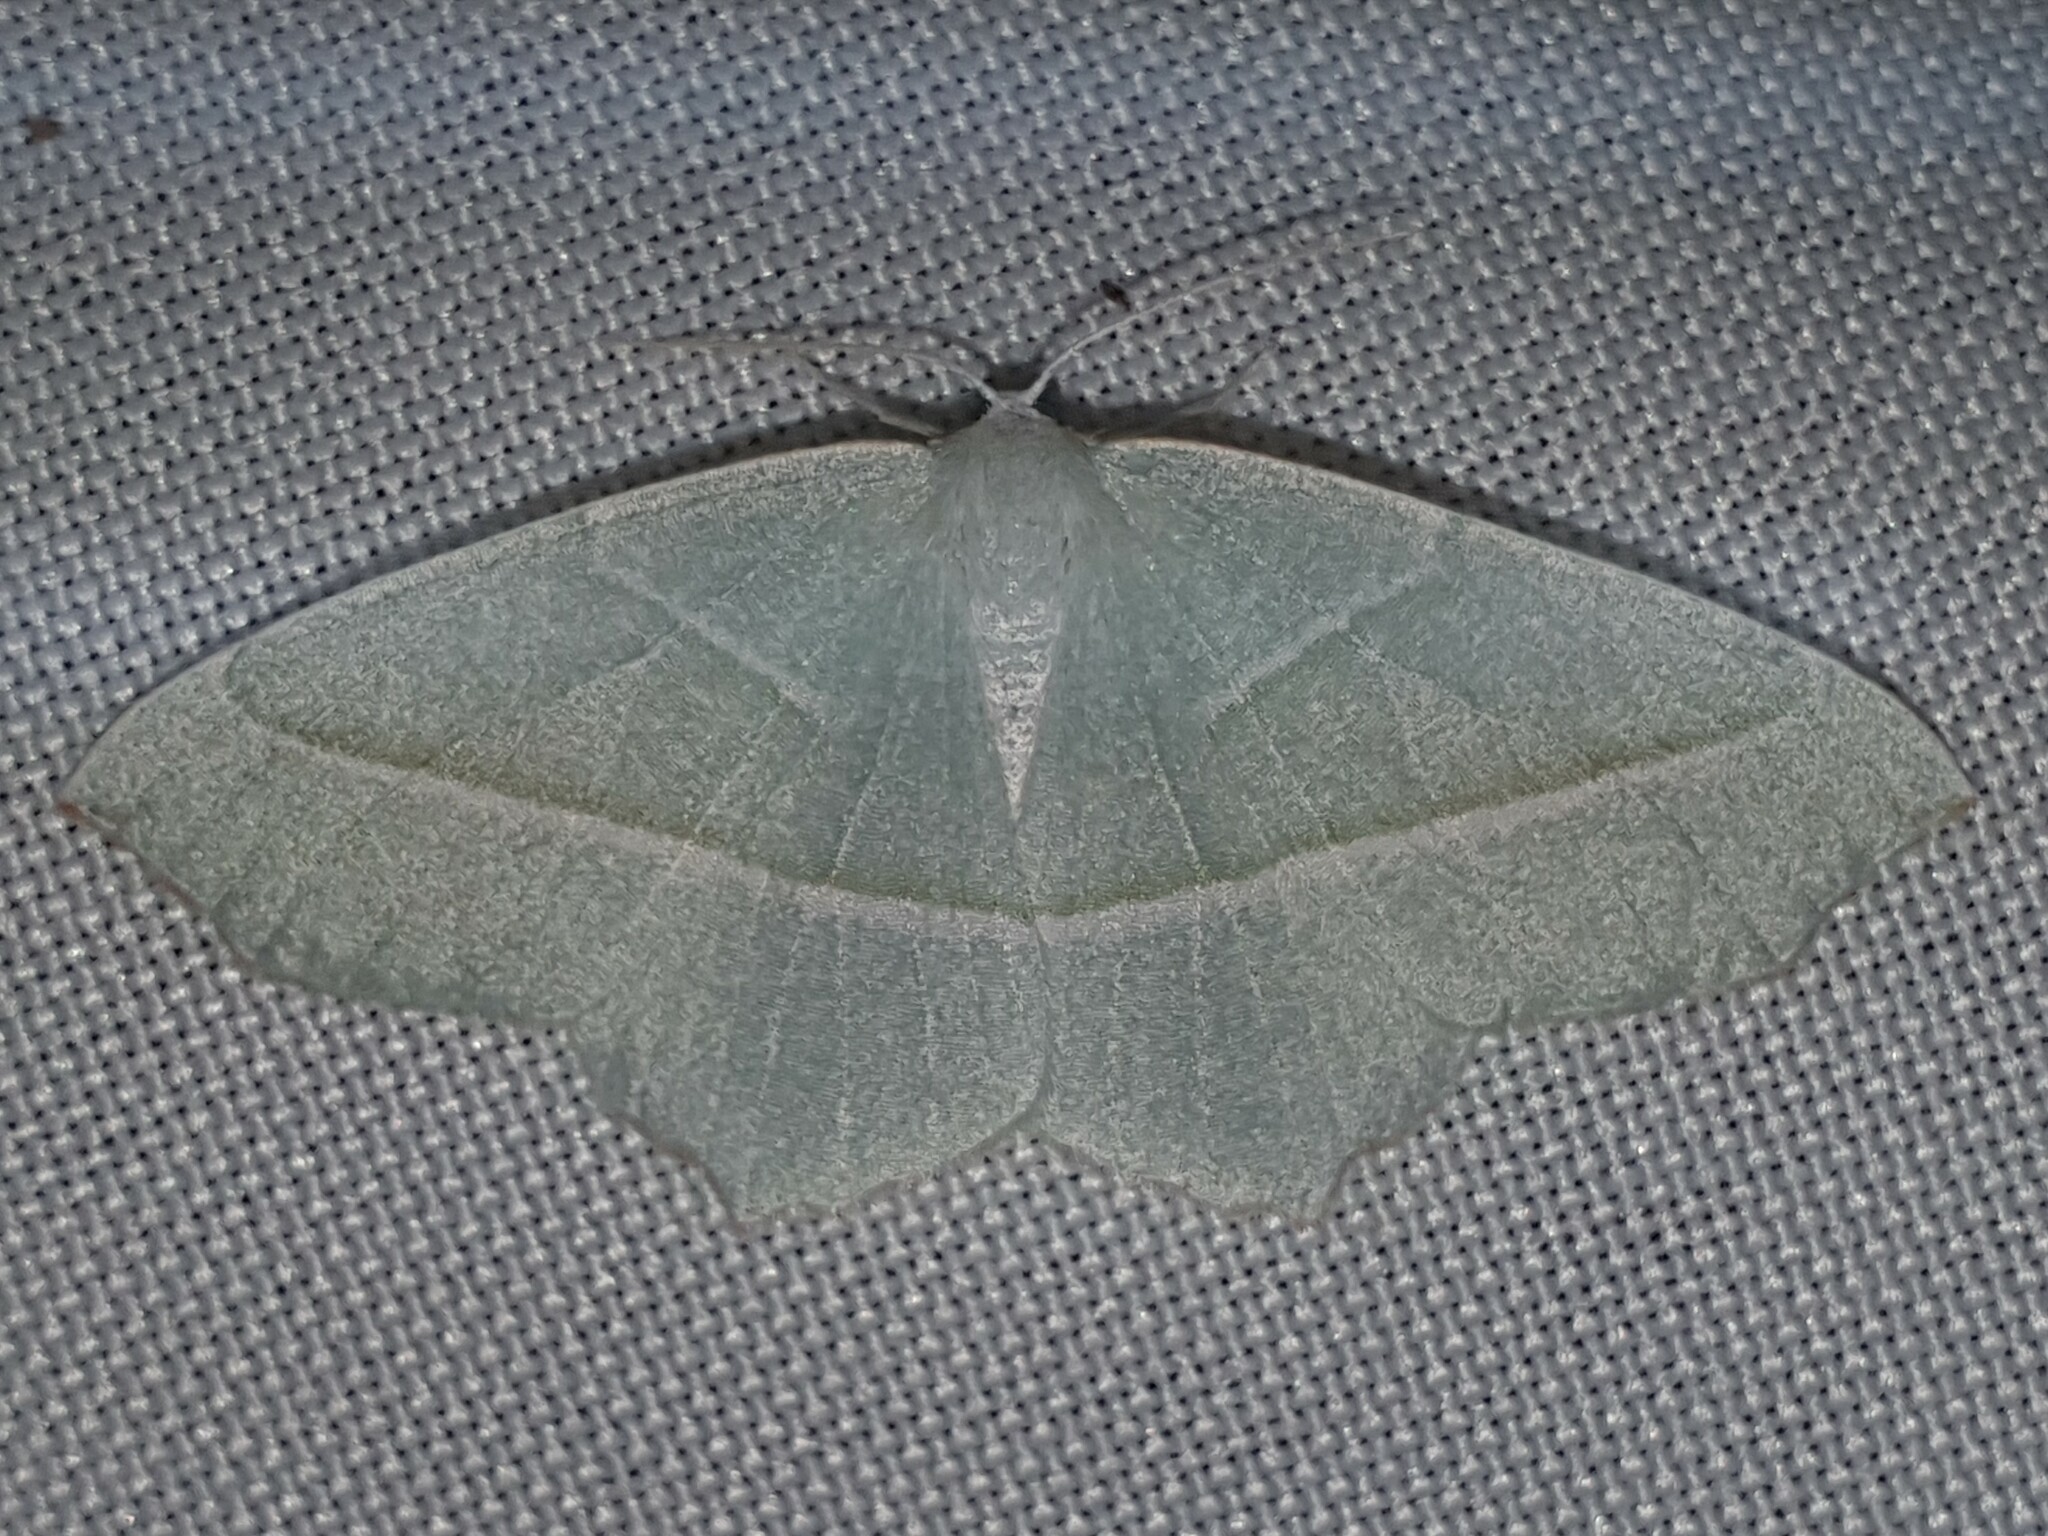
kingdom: Animalia
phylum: Arthropoda
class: Insecta
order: Lepidoptera
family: Geometridae
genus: Campaea
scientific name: Campaea margaritaria
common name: Light emerald
